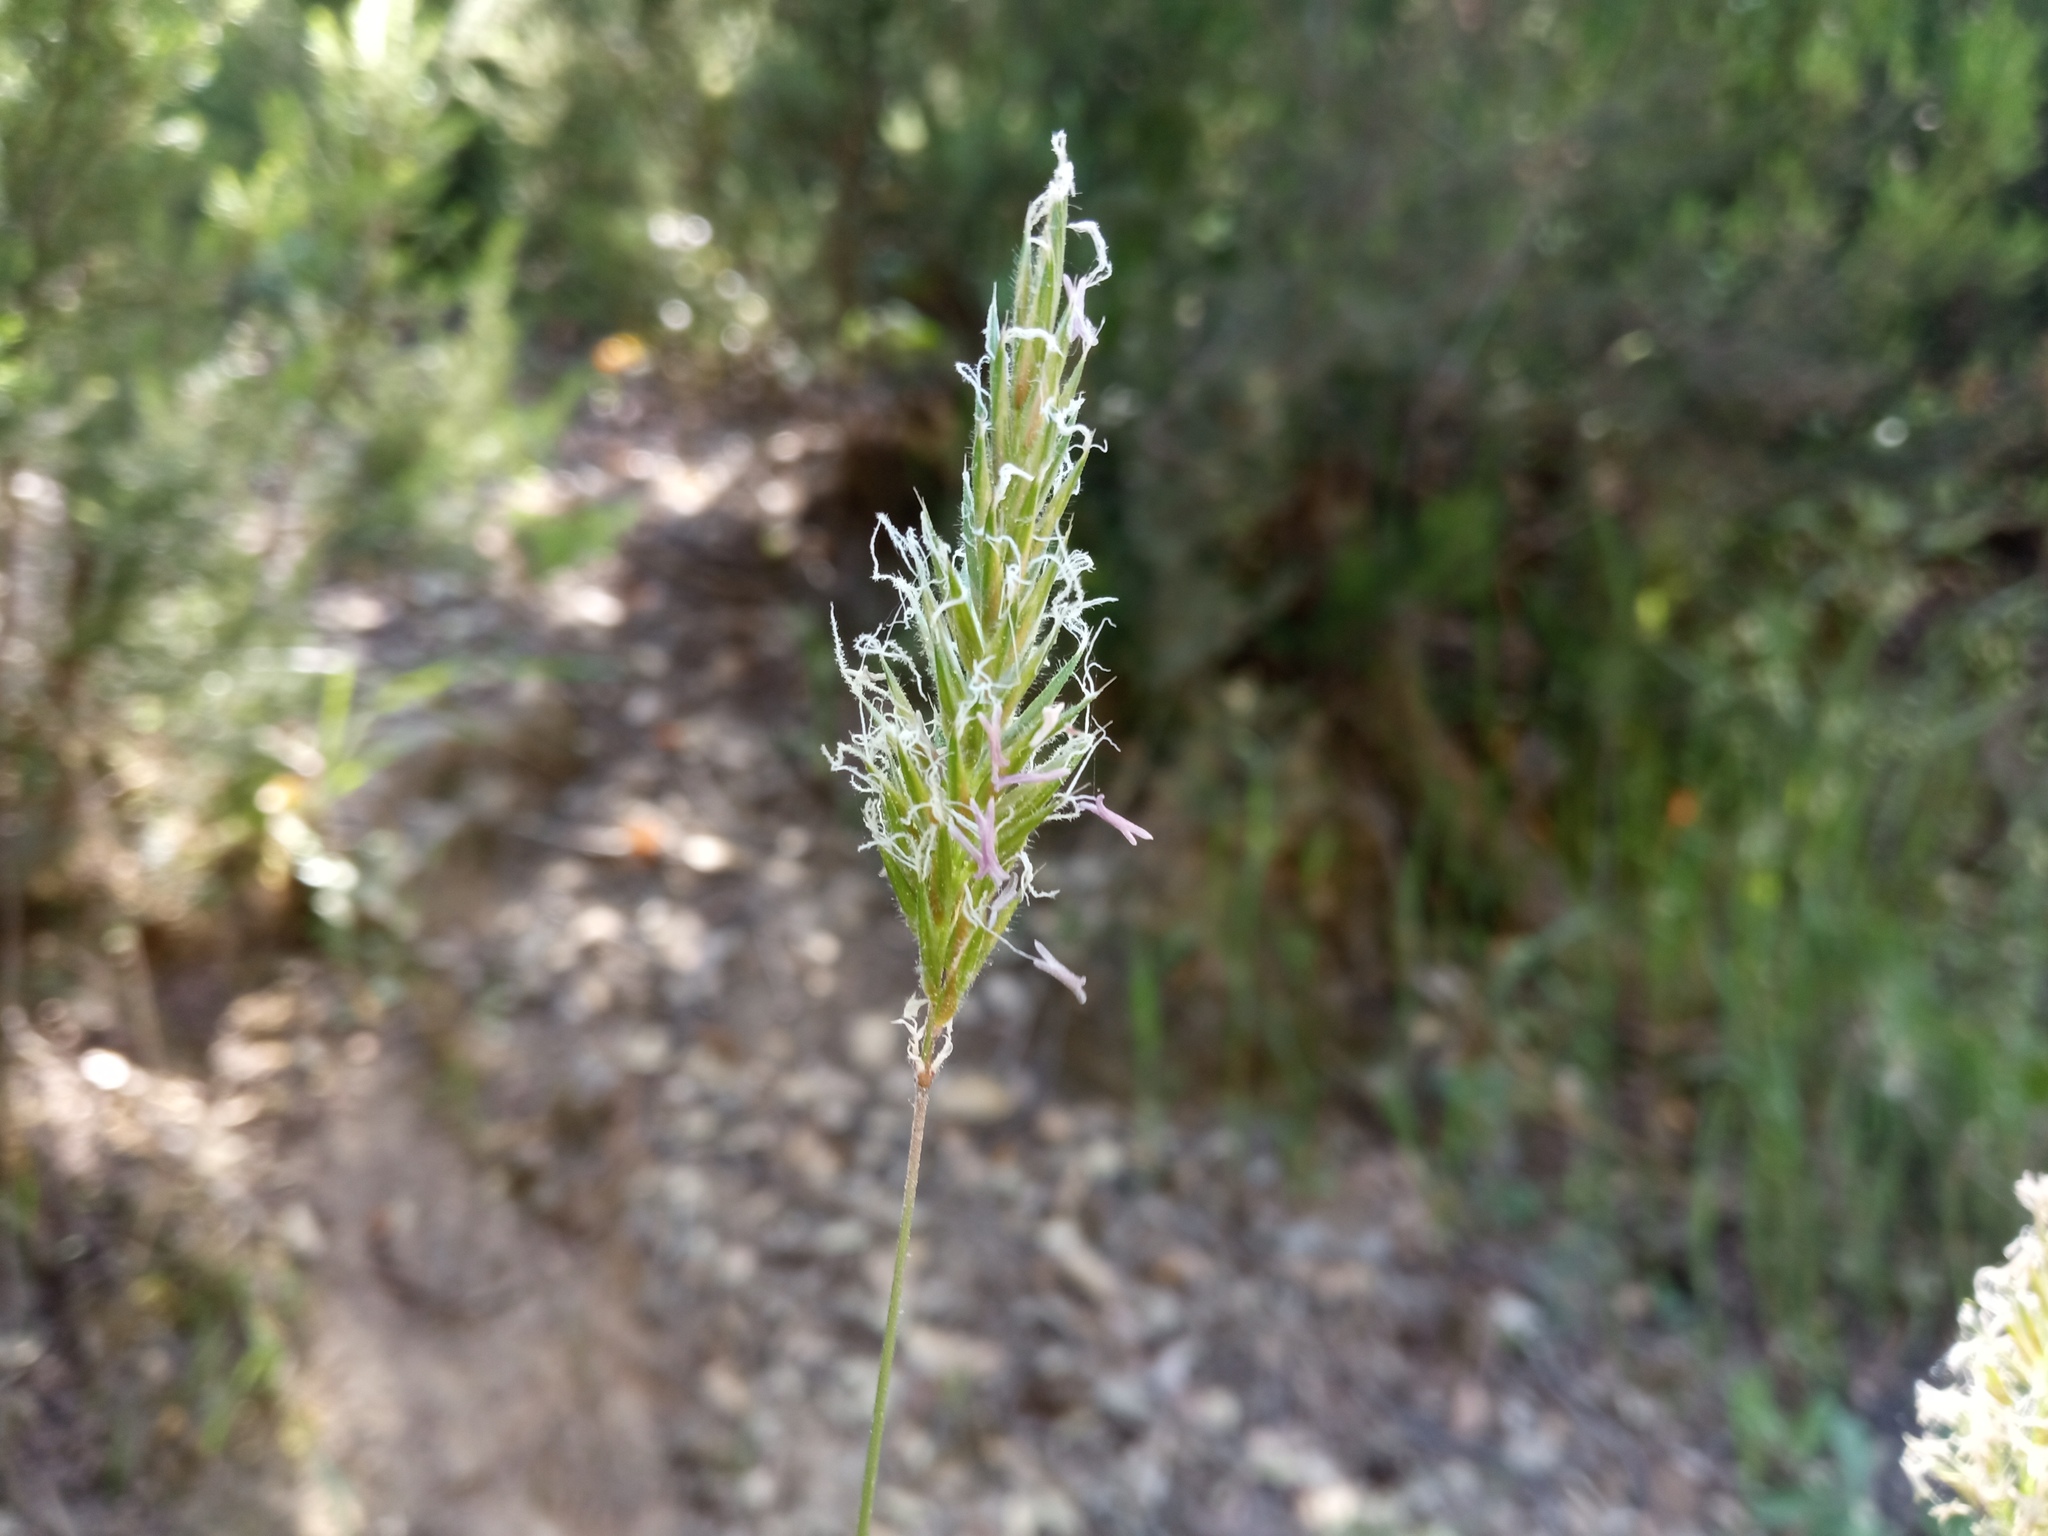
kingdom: Plantae
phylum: Tracheophyta
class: Liliopsida
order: Poales
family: Poaceae
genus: Anthoxanthum
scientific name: Anthoxanthum odoratum
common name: Sweet vernalgrass
